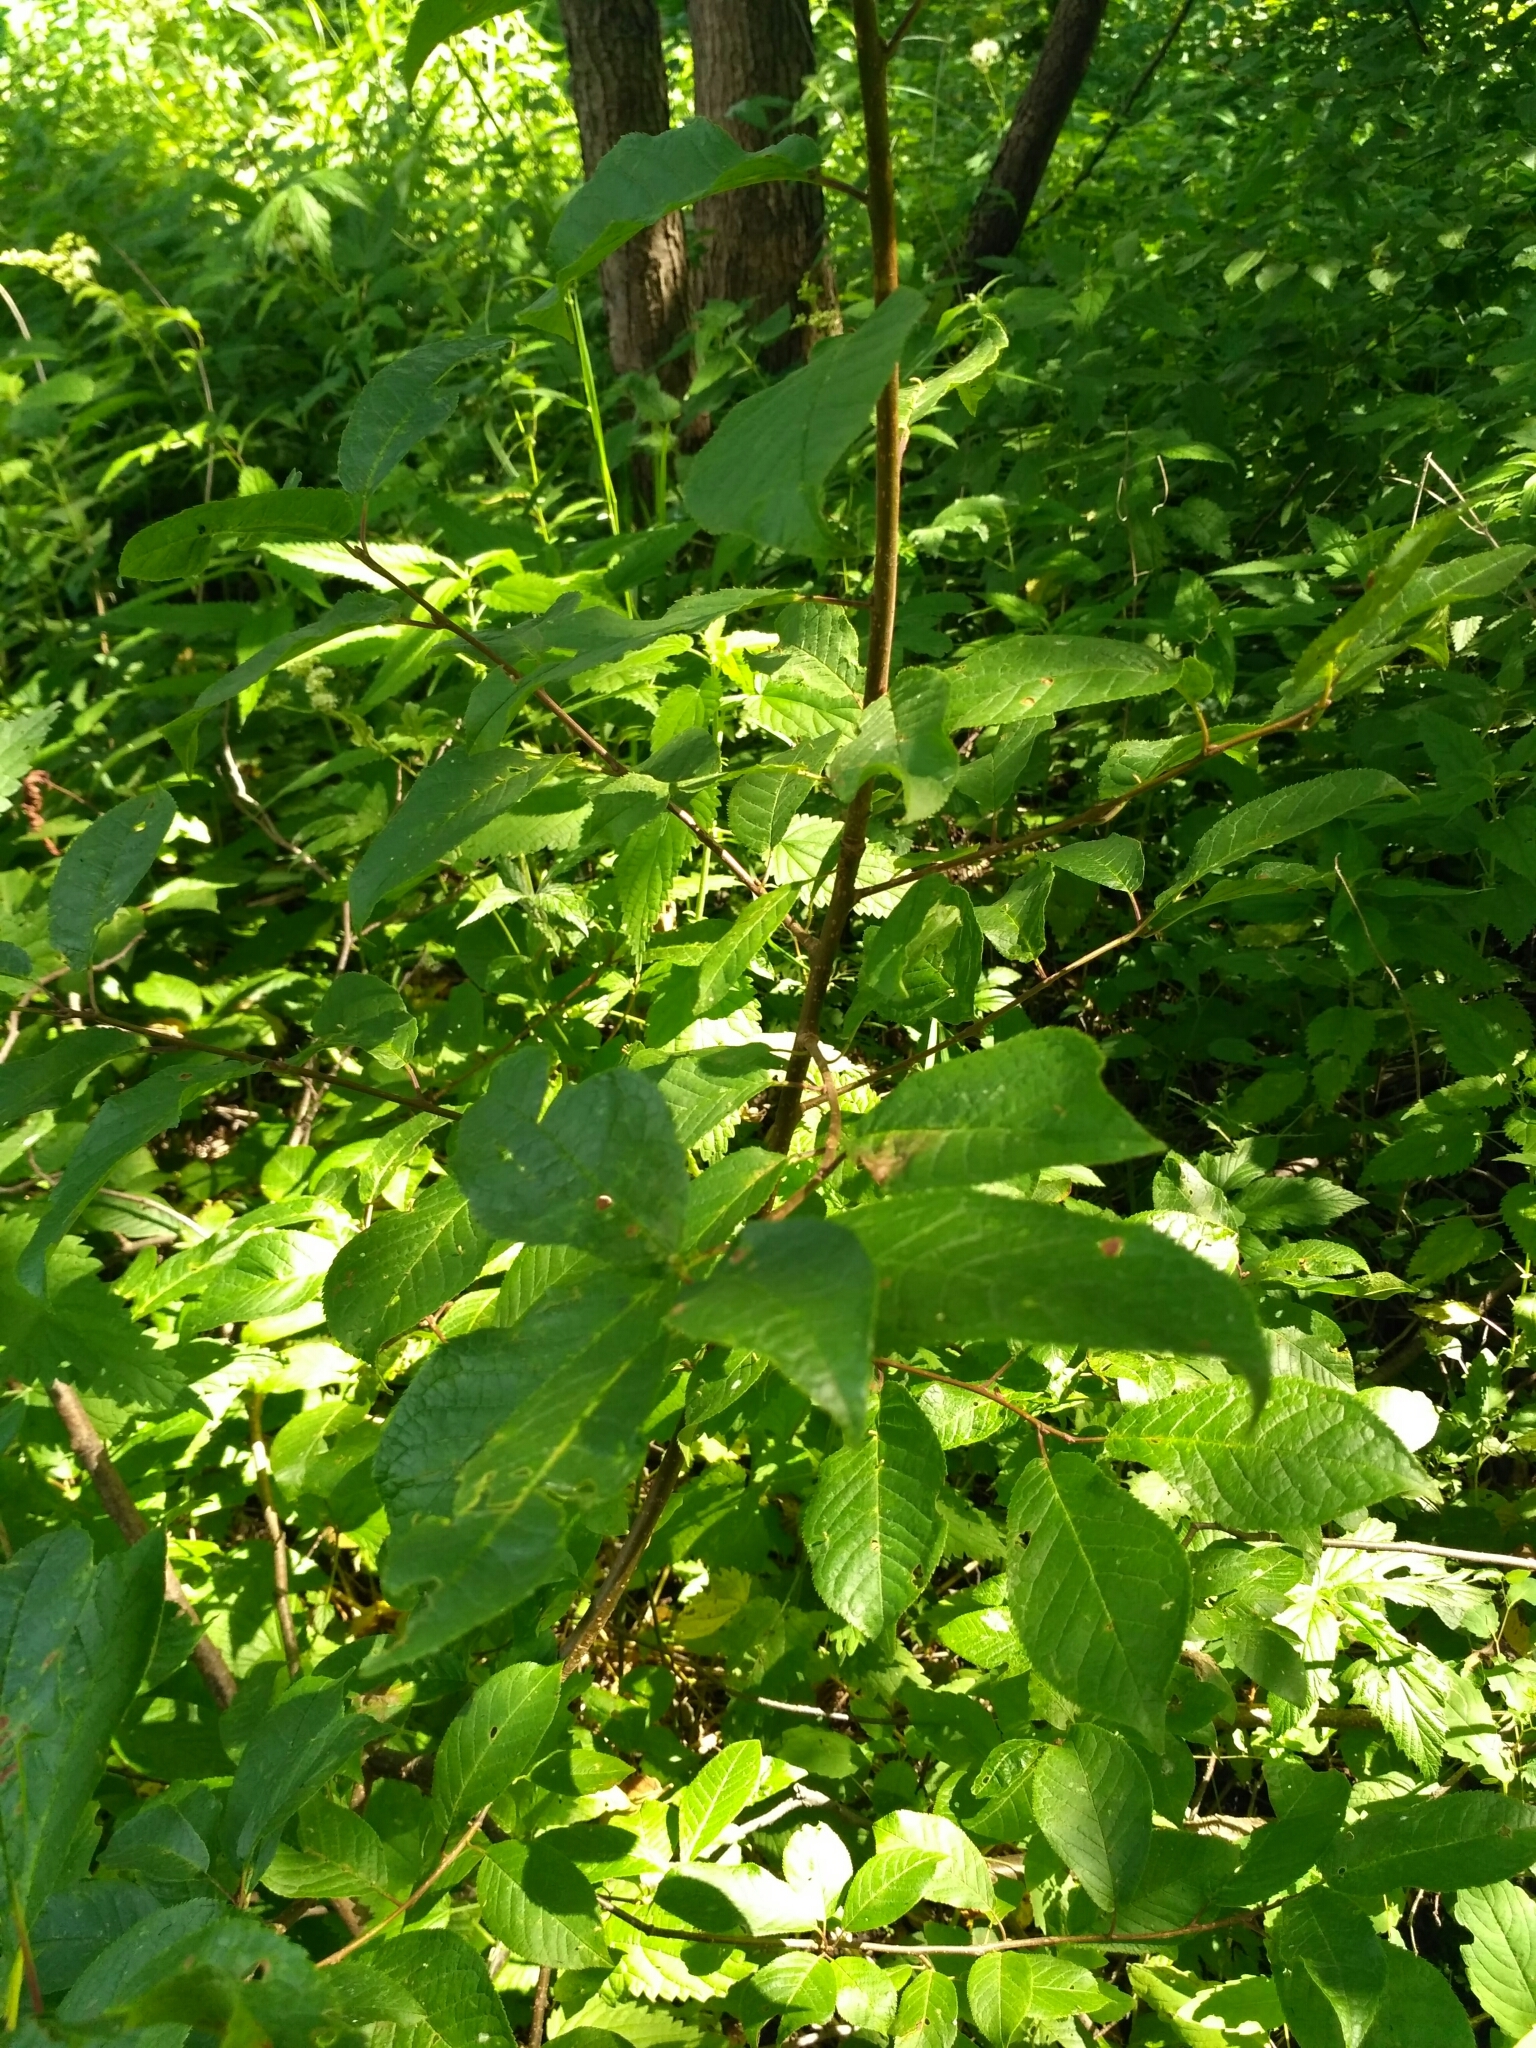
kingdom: Plantae
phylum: Tracheophyta
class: Magnoliopsida
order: Rosales
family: Rosaceae
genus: Prunus
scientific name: Prunus padus
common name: Bird cherry
